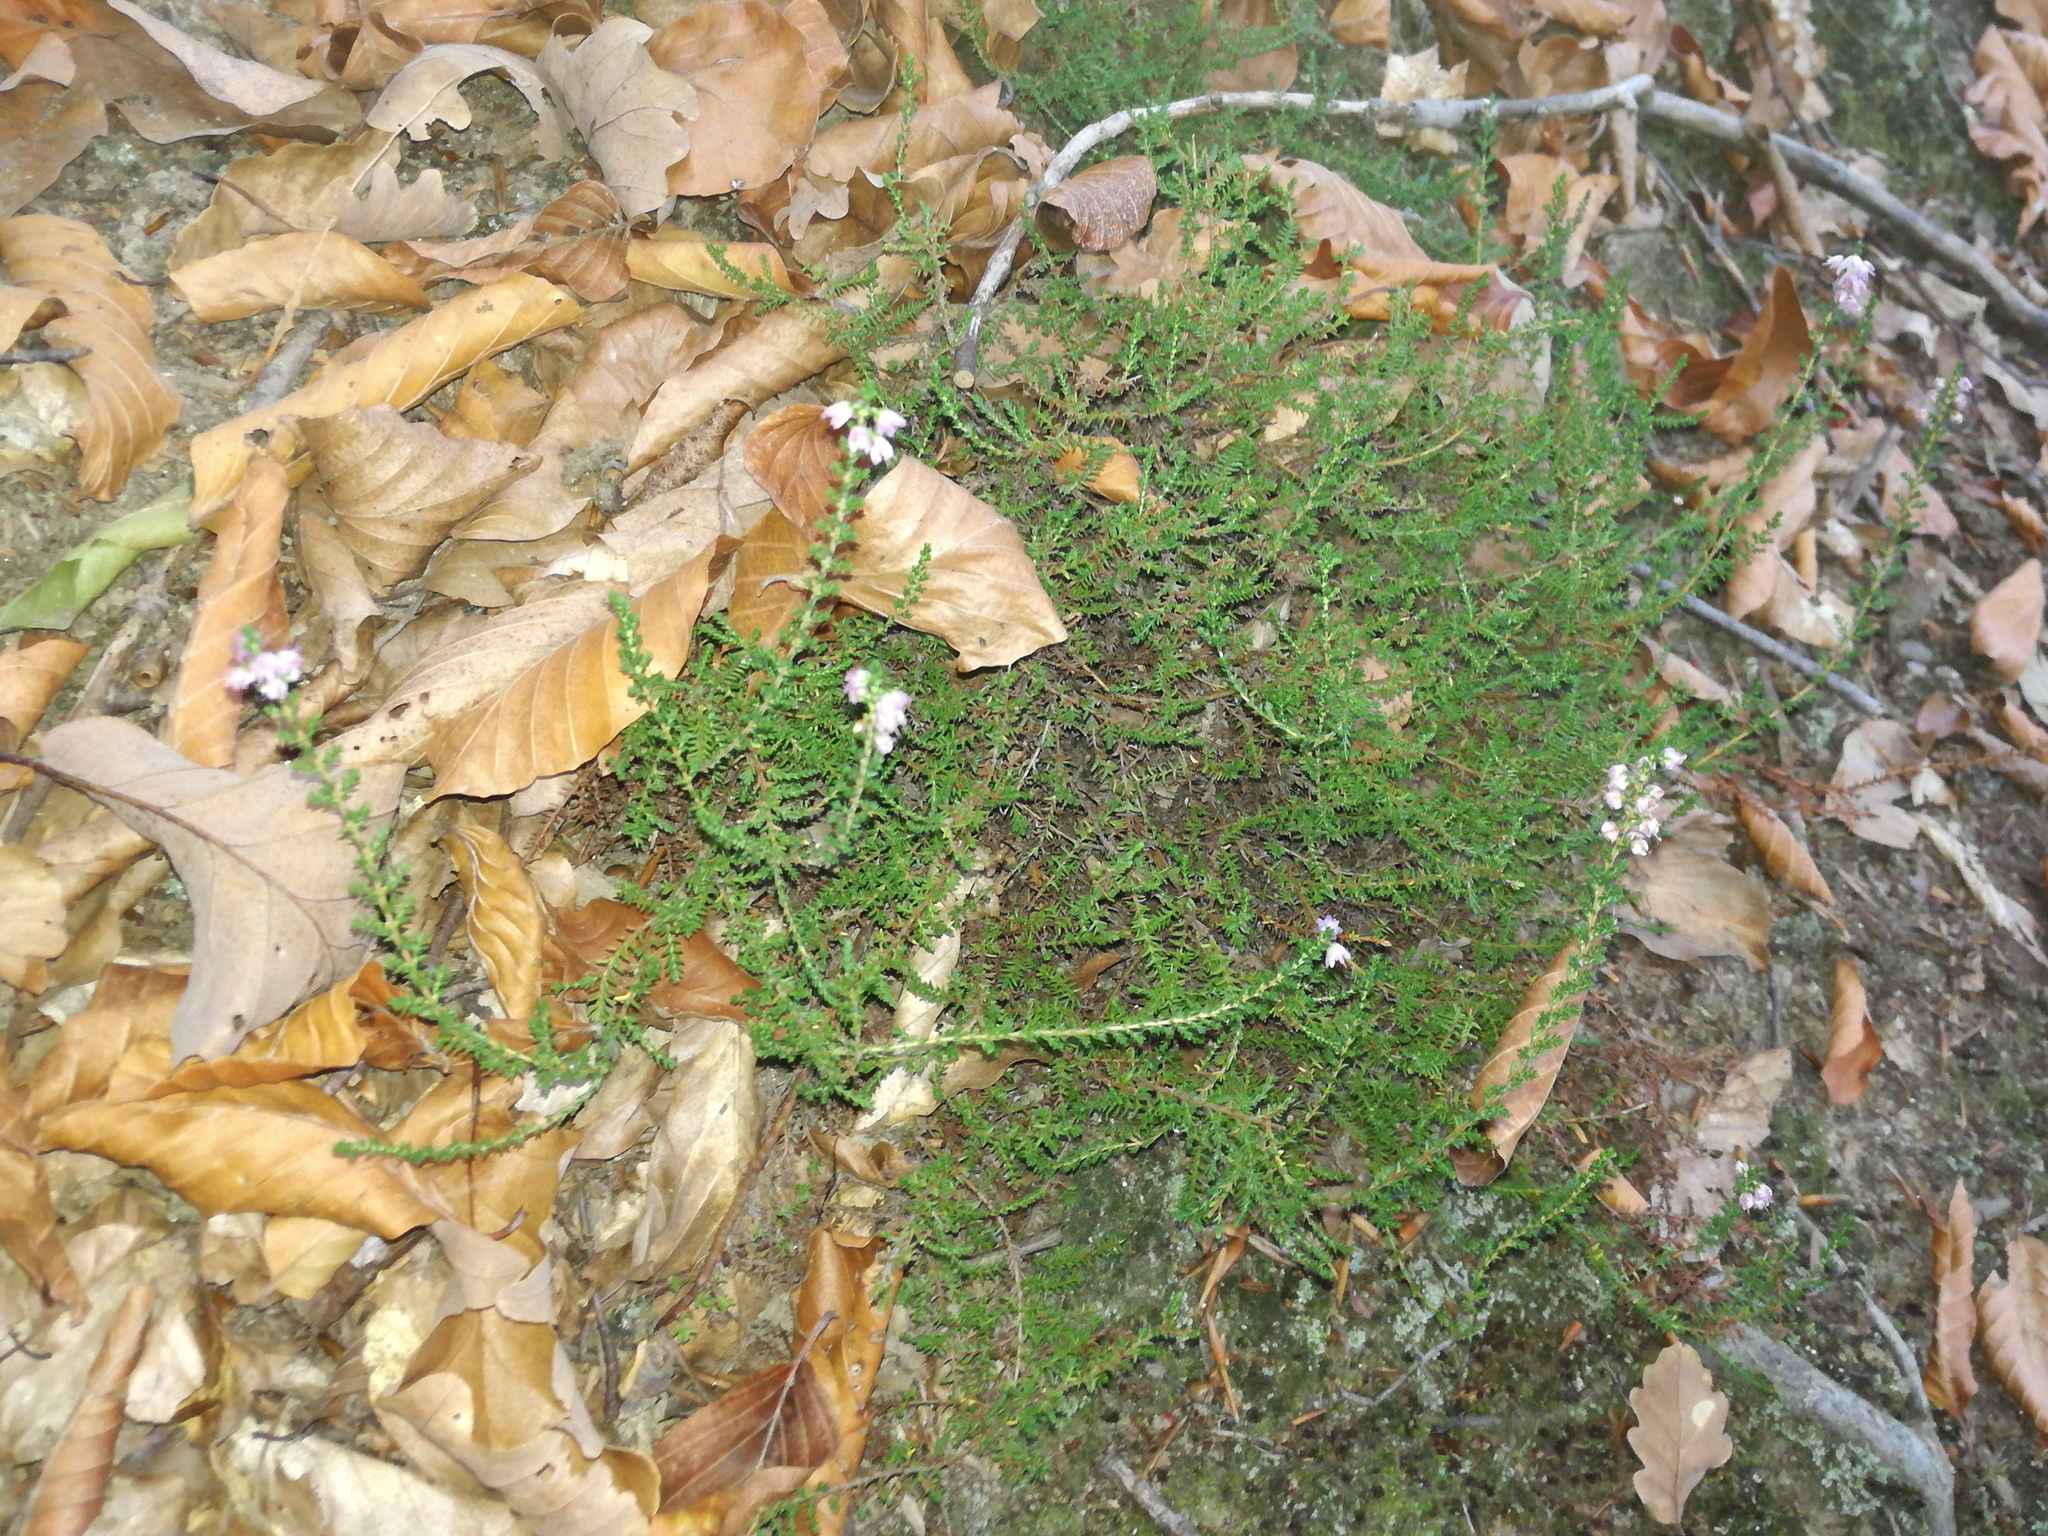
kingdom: Plantae
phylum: Tracheophyta
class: Magnoliopsida
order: Ericales
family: Ericaceae
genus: Calluna
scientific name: Calluna vulgaris
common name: Heather
